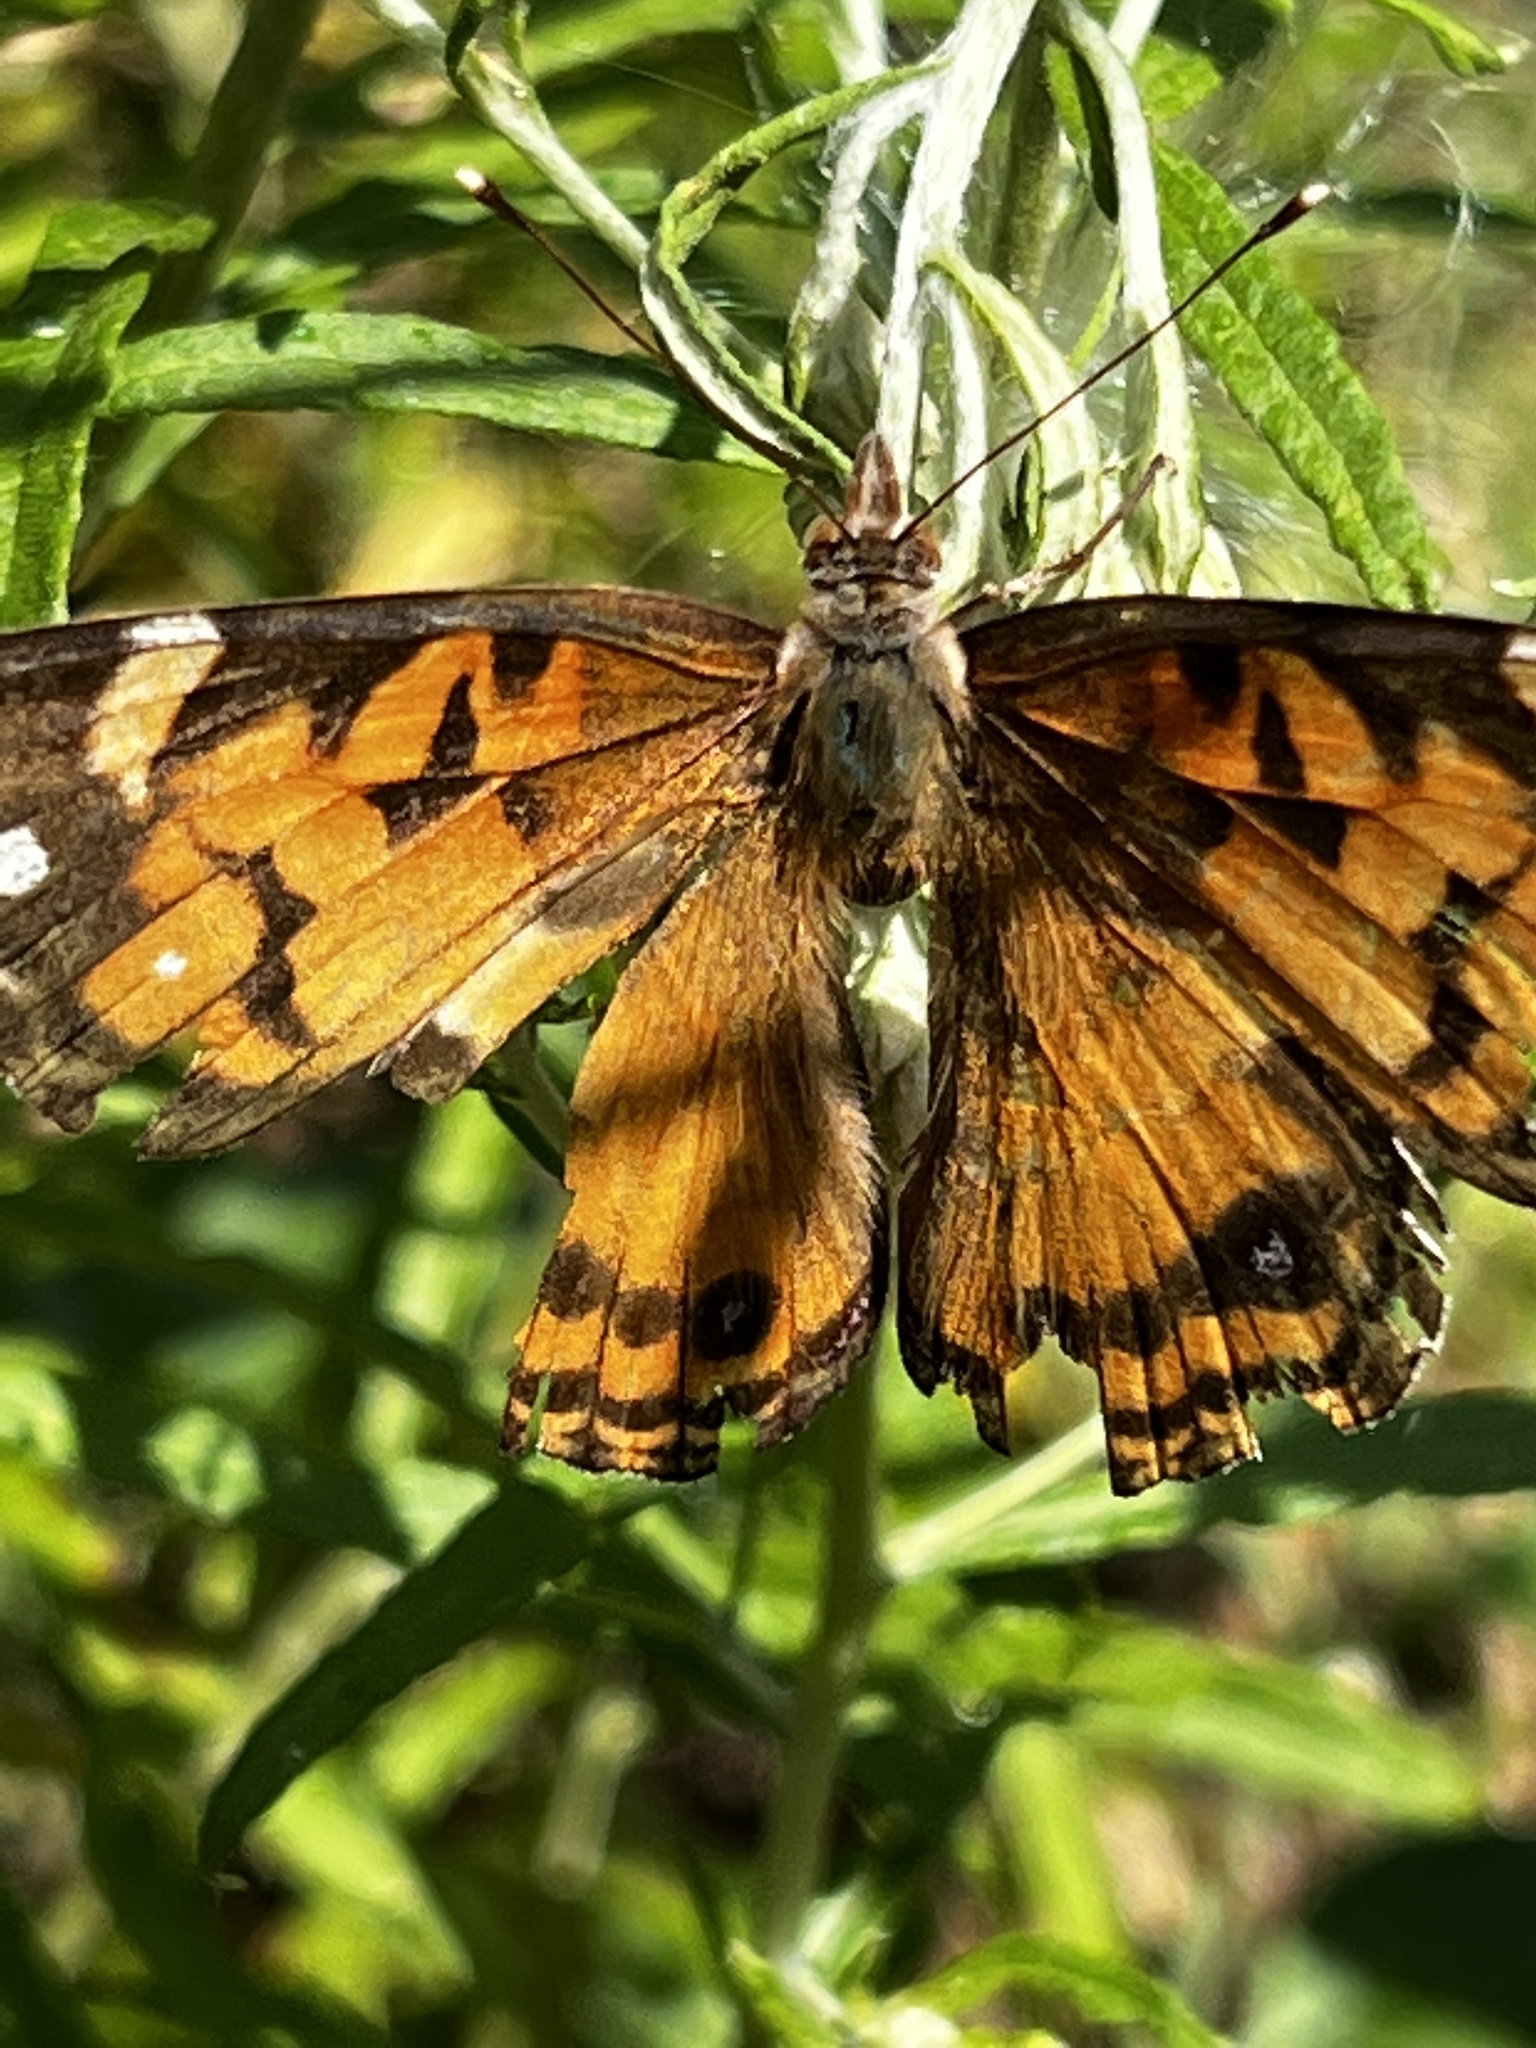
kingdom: Animalia
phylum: Arthropoda
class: Insecta
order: Lepidoptera
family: Nymphalidae
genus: Vanessa
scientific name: Vanessa virginiensis
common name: American lady
